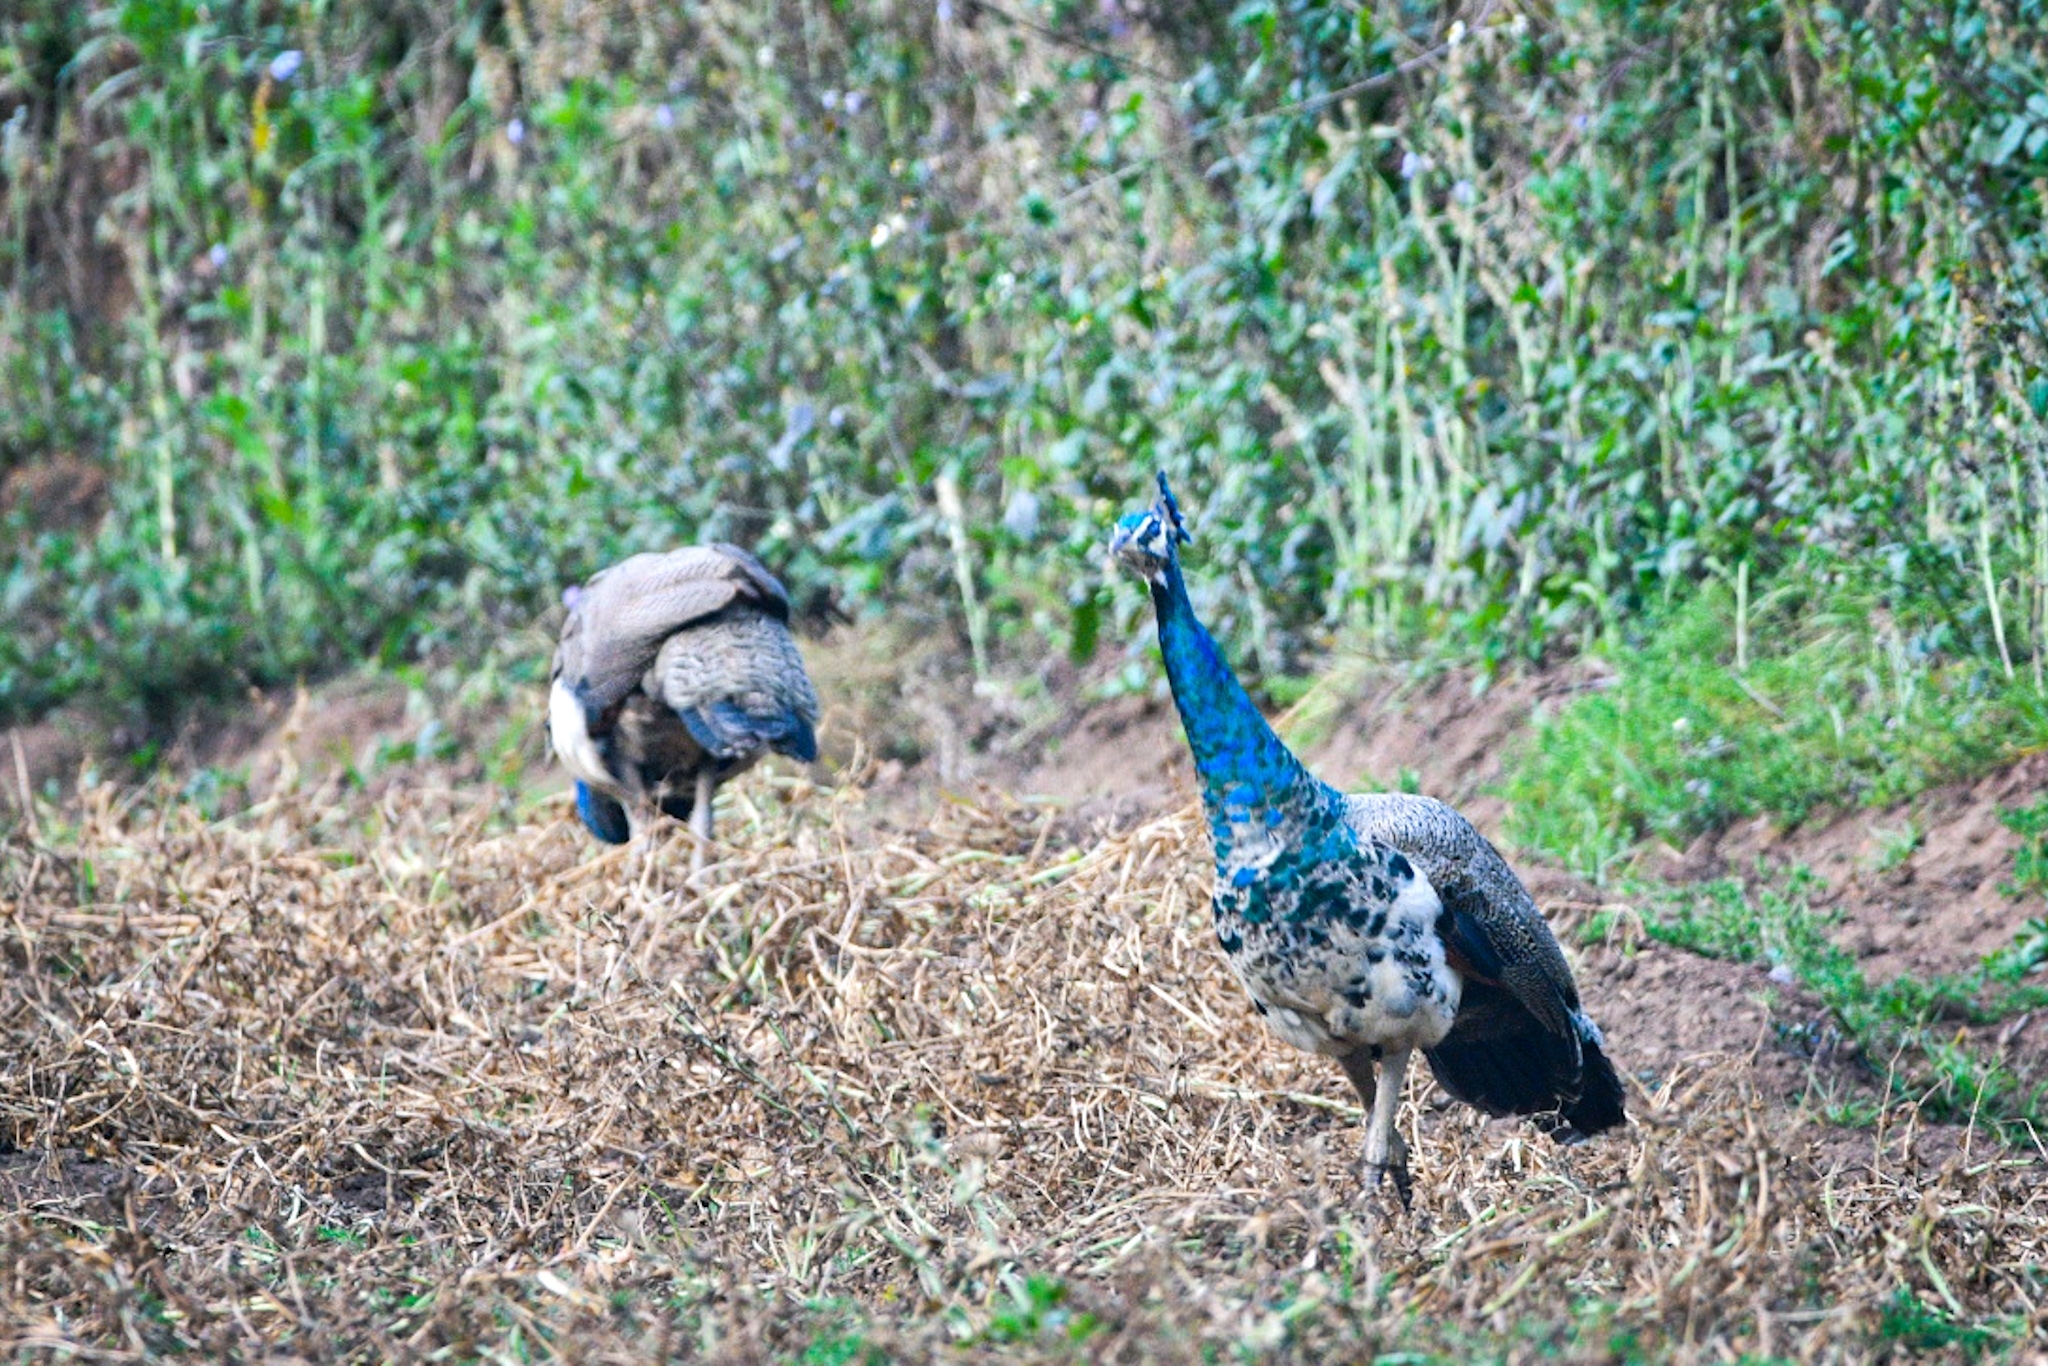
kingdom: Animalia
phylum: Chordata
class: Aves
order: Galliformes
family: Phasianidae
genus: Pavo
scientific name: Pavo cristatus
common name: Indian peafowl
